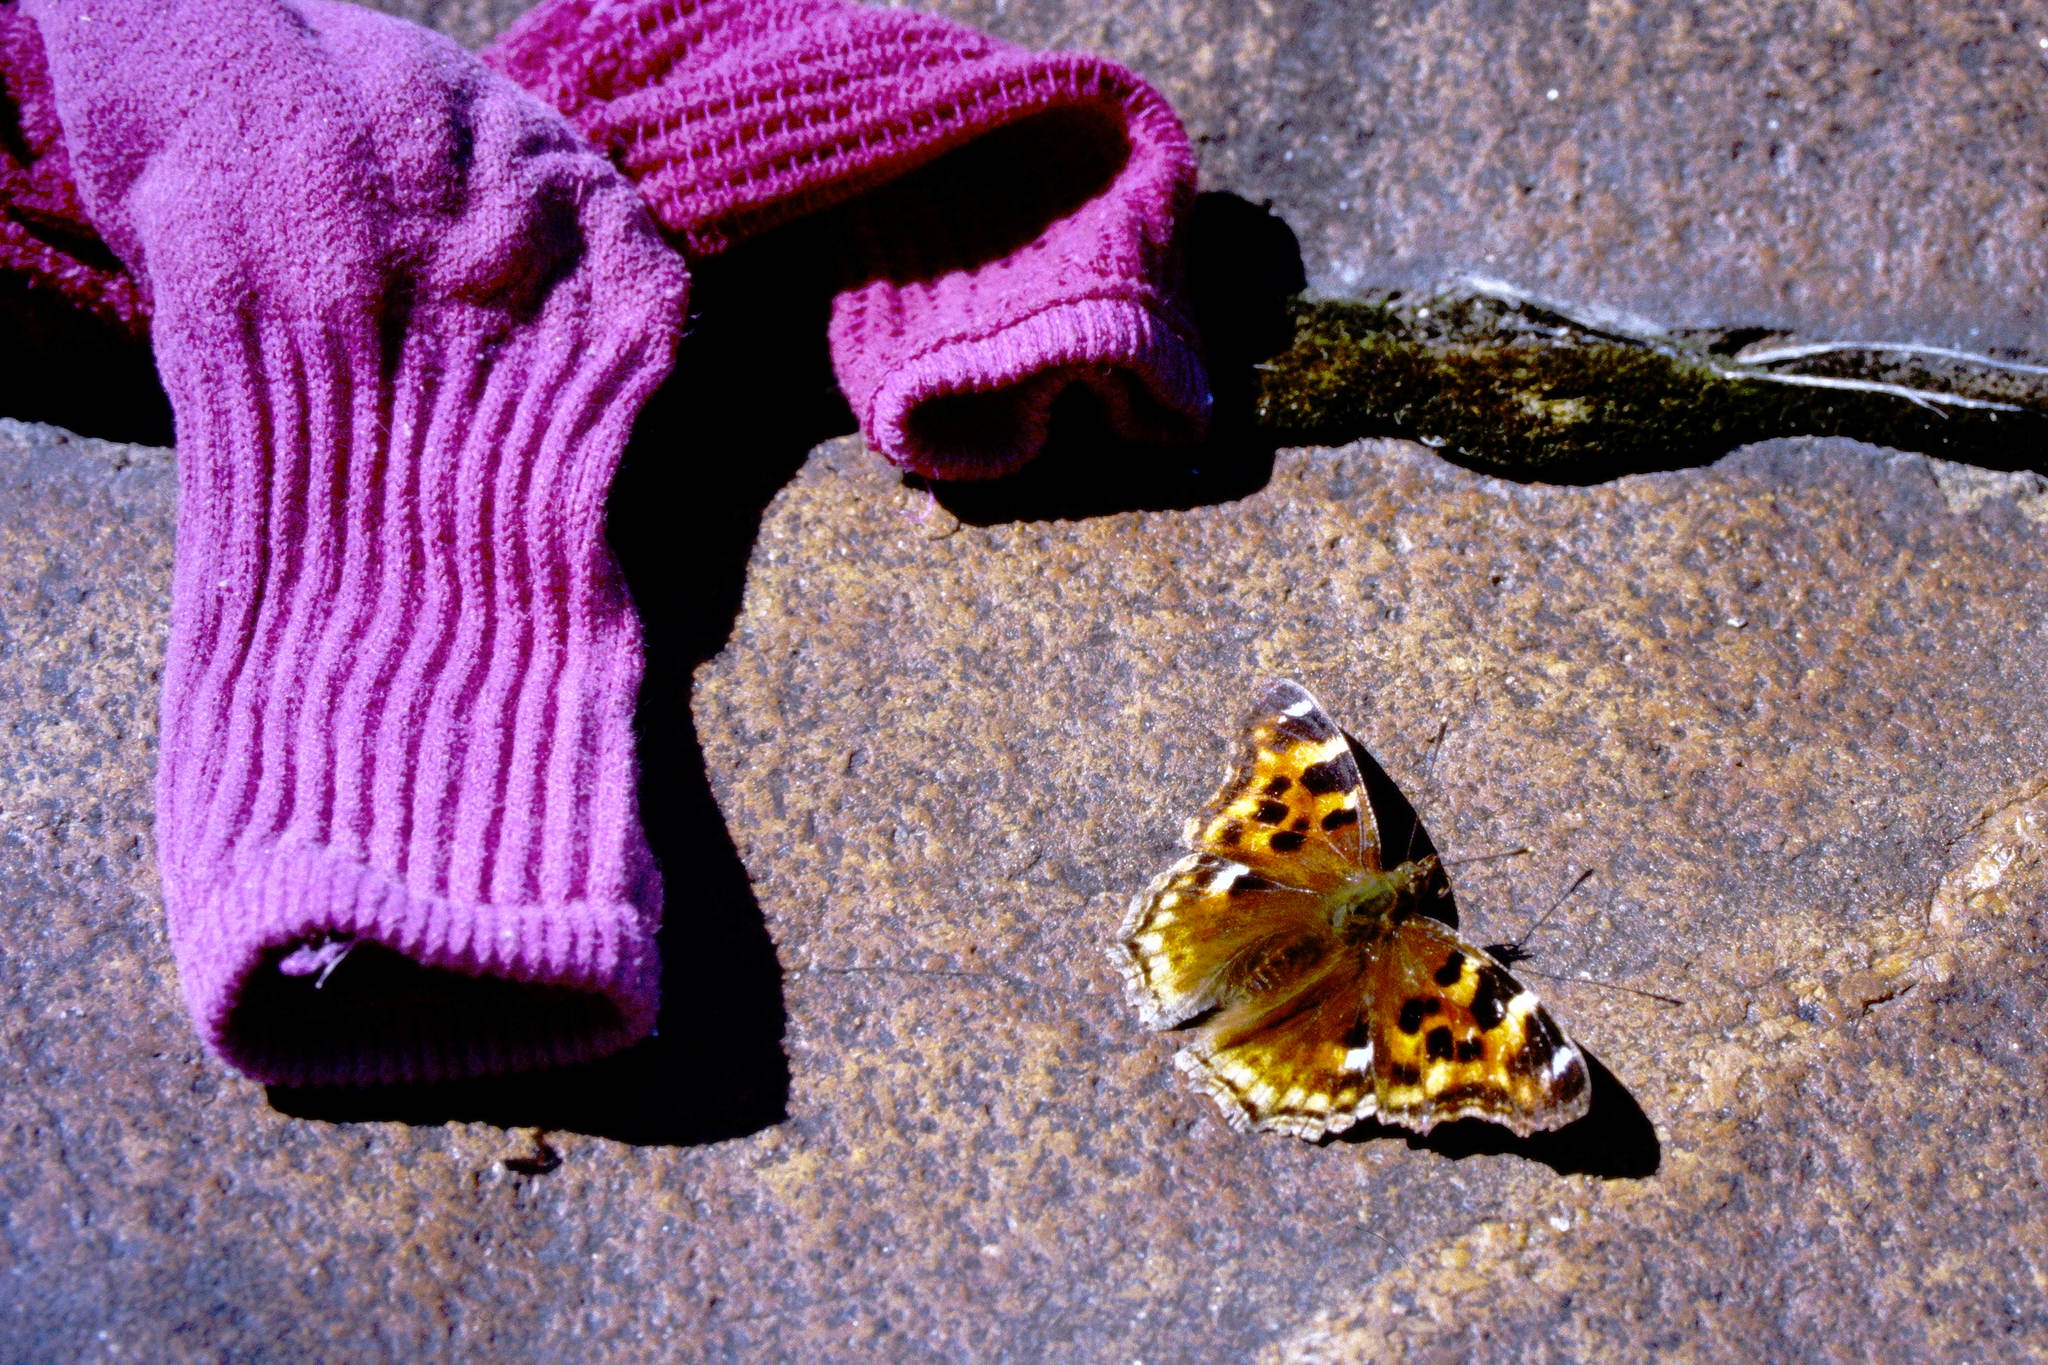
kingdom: Animalia
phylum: Arthropoda
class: Insecta
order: Lepidoptera
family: Nymphalidae
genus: Polygonia
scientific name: Polygonia vaualbum
